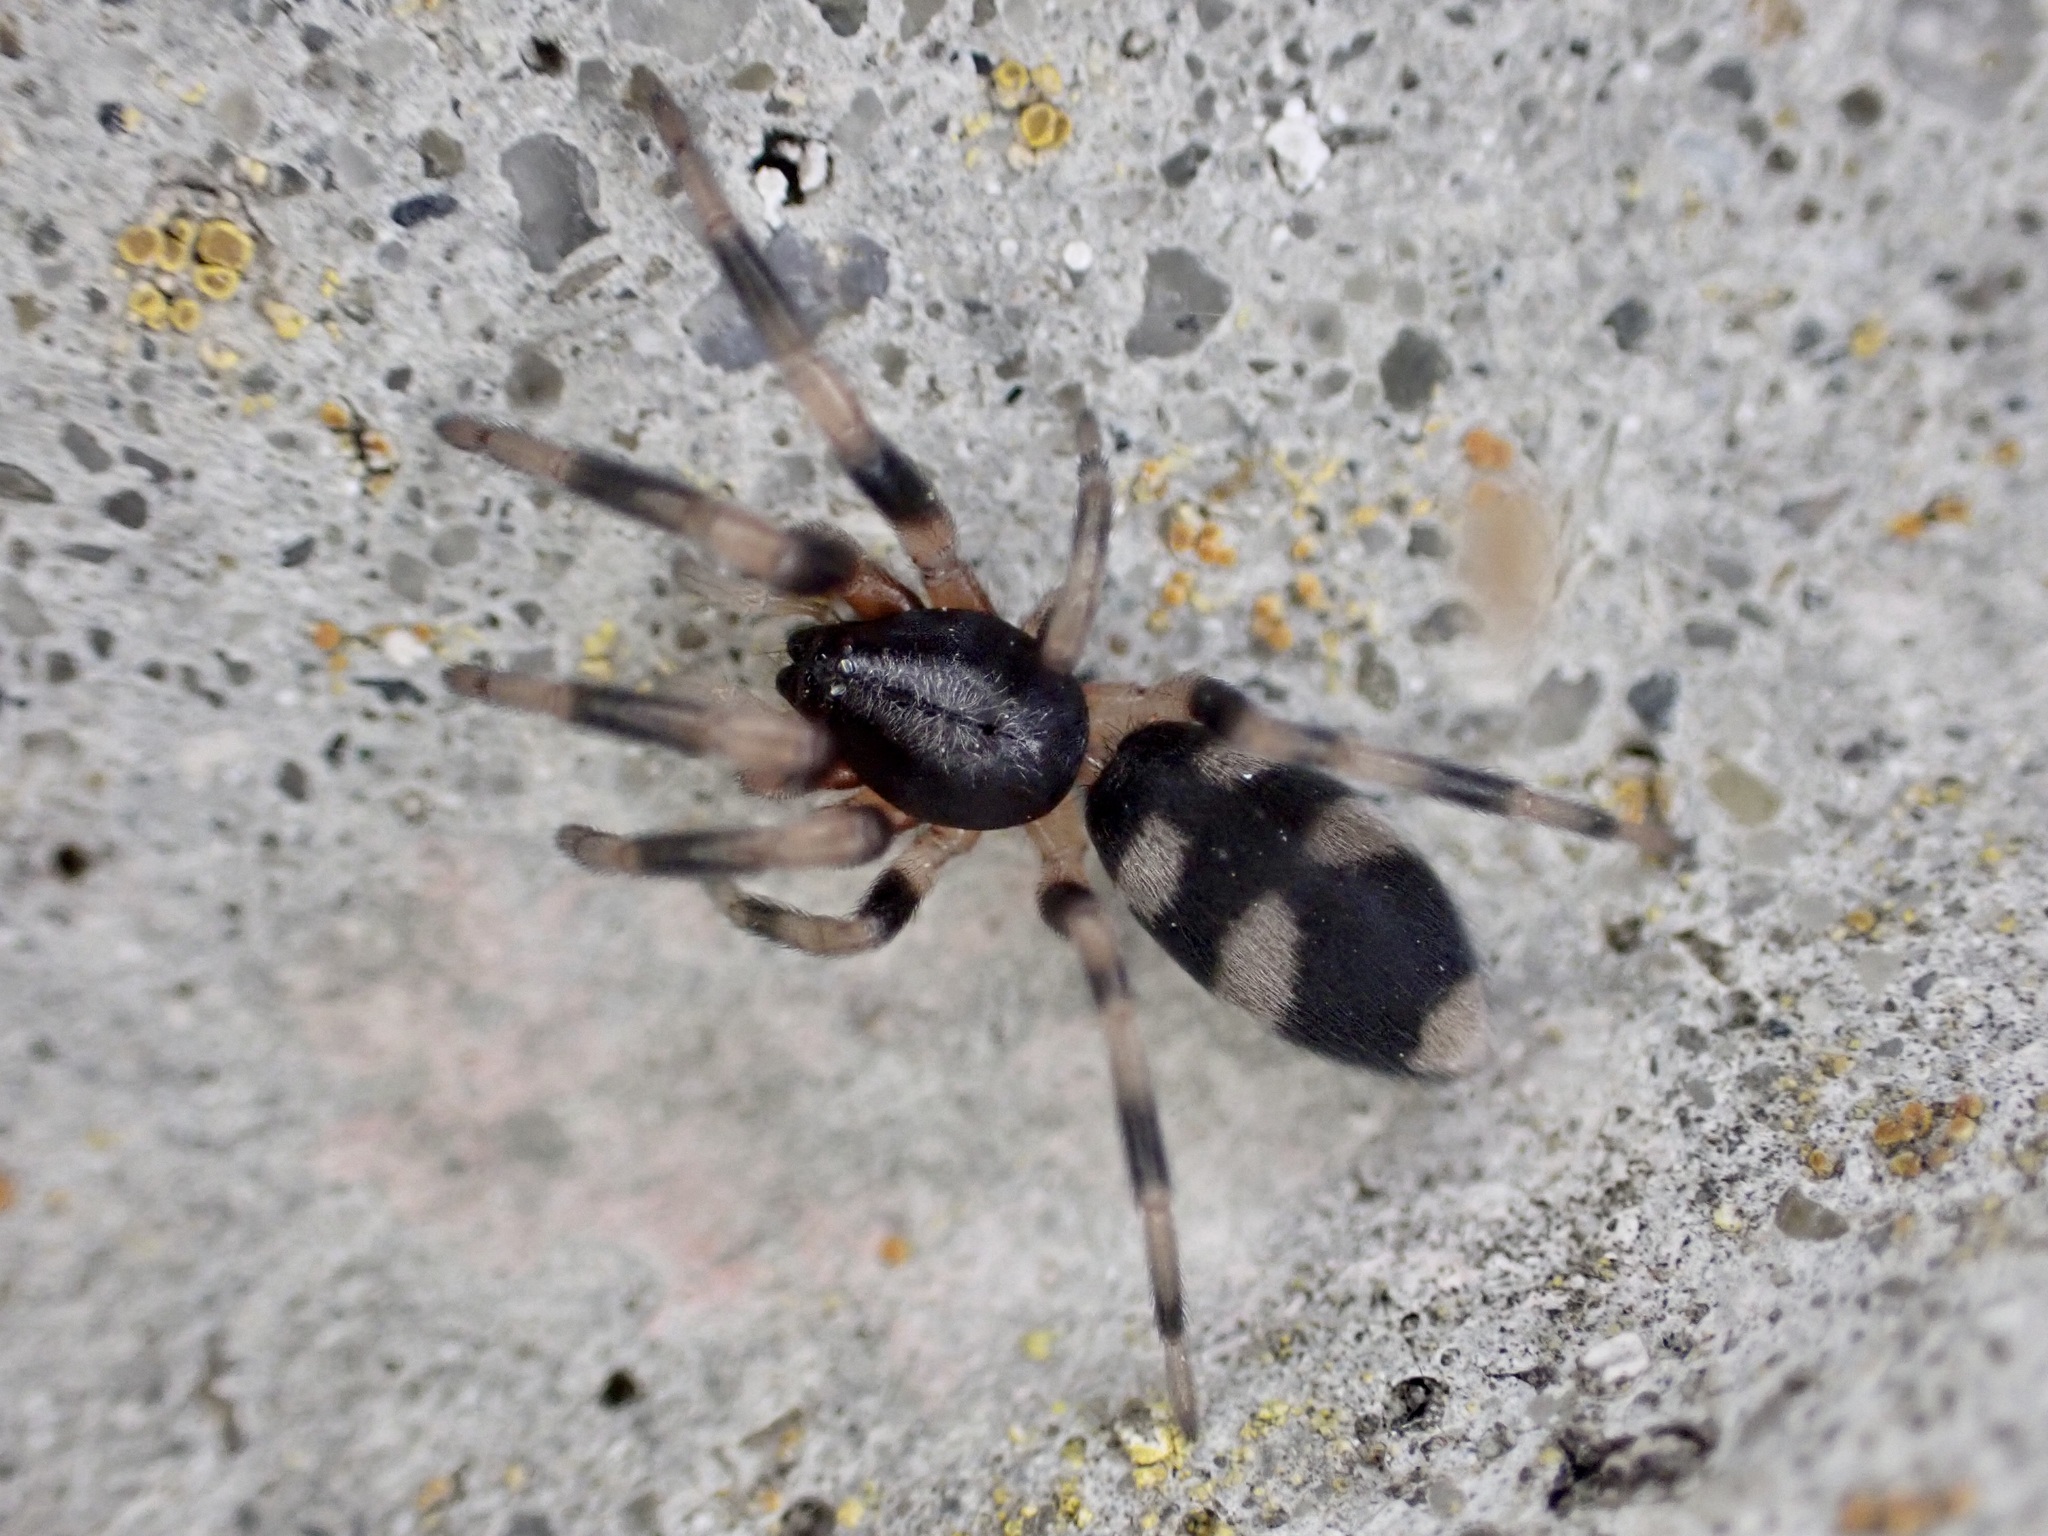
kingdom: Animalia
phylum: Arthropoda
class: Arachnida
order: Araneae
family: Lamponidae
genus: Lampona
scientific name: Lampona cylindrata
